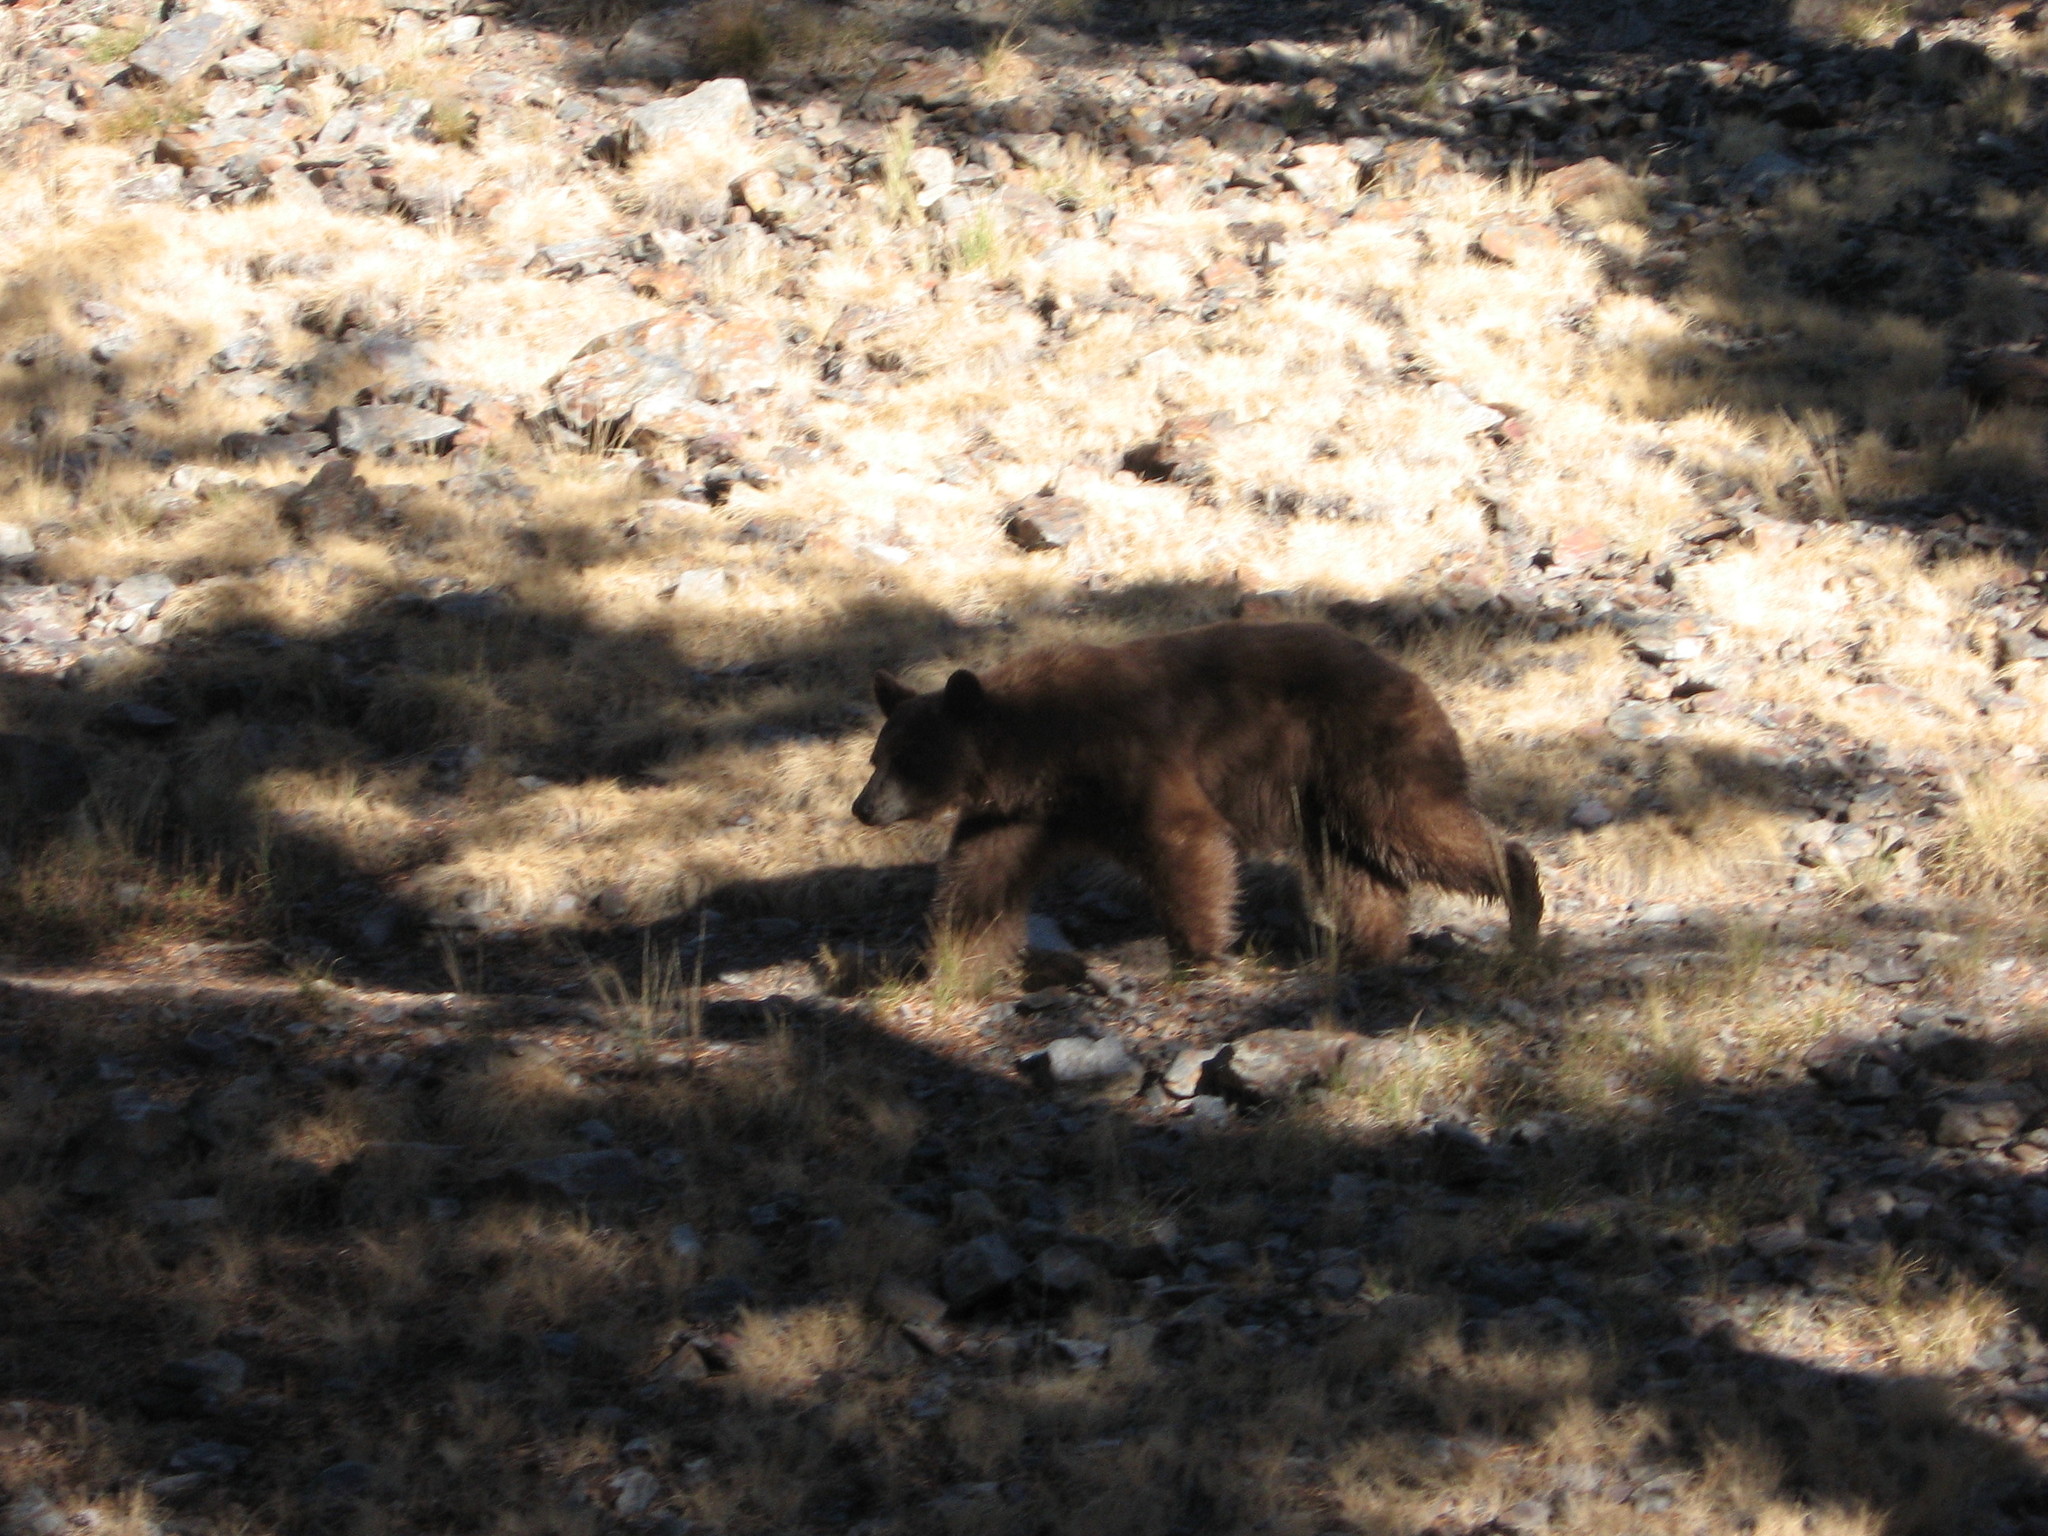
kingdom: Animalia
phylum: Chordata
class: Mammalia
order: Carnivora
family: Ursidae
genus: Ursus
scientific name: Ursus americanus
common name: American black bear
